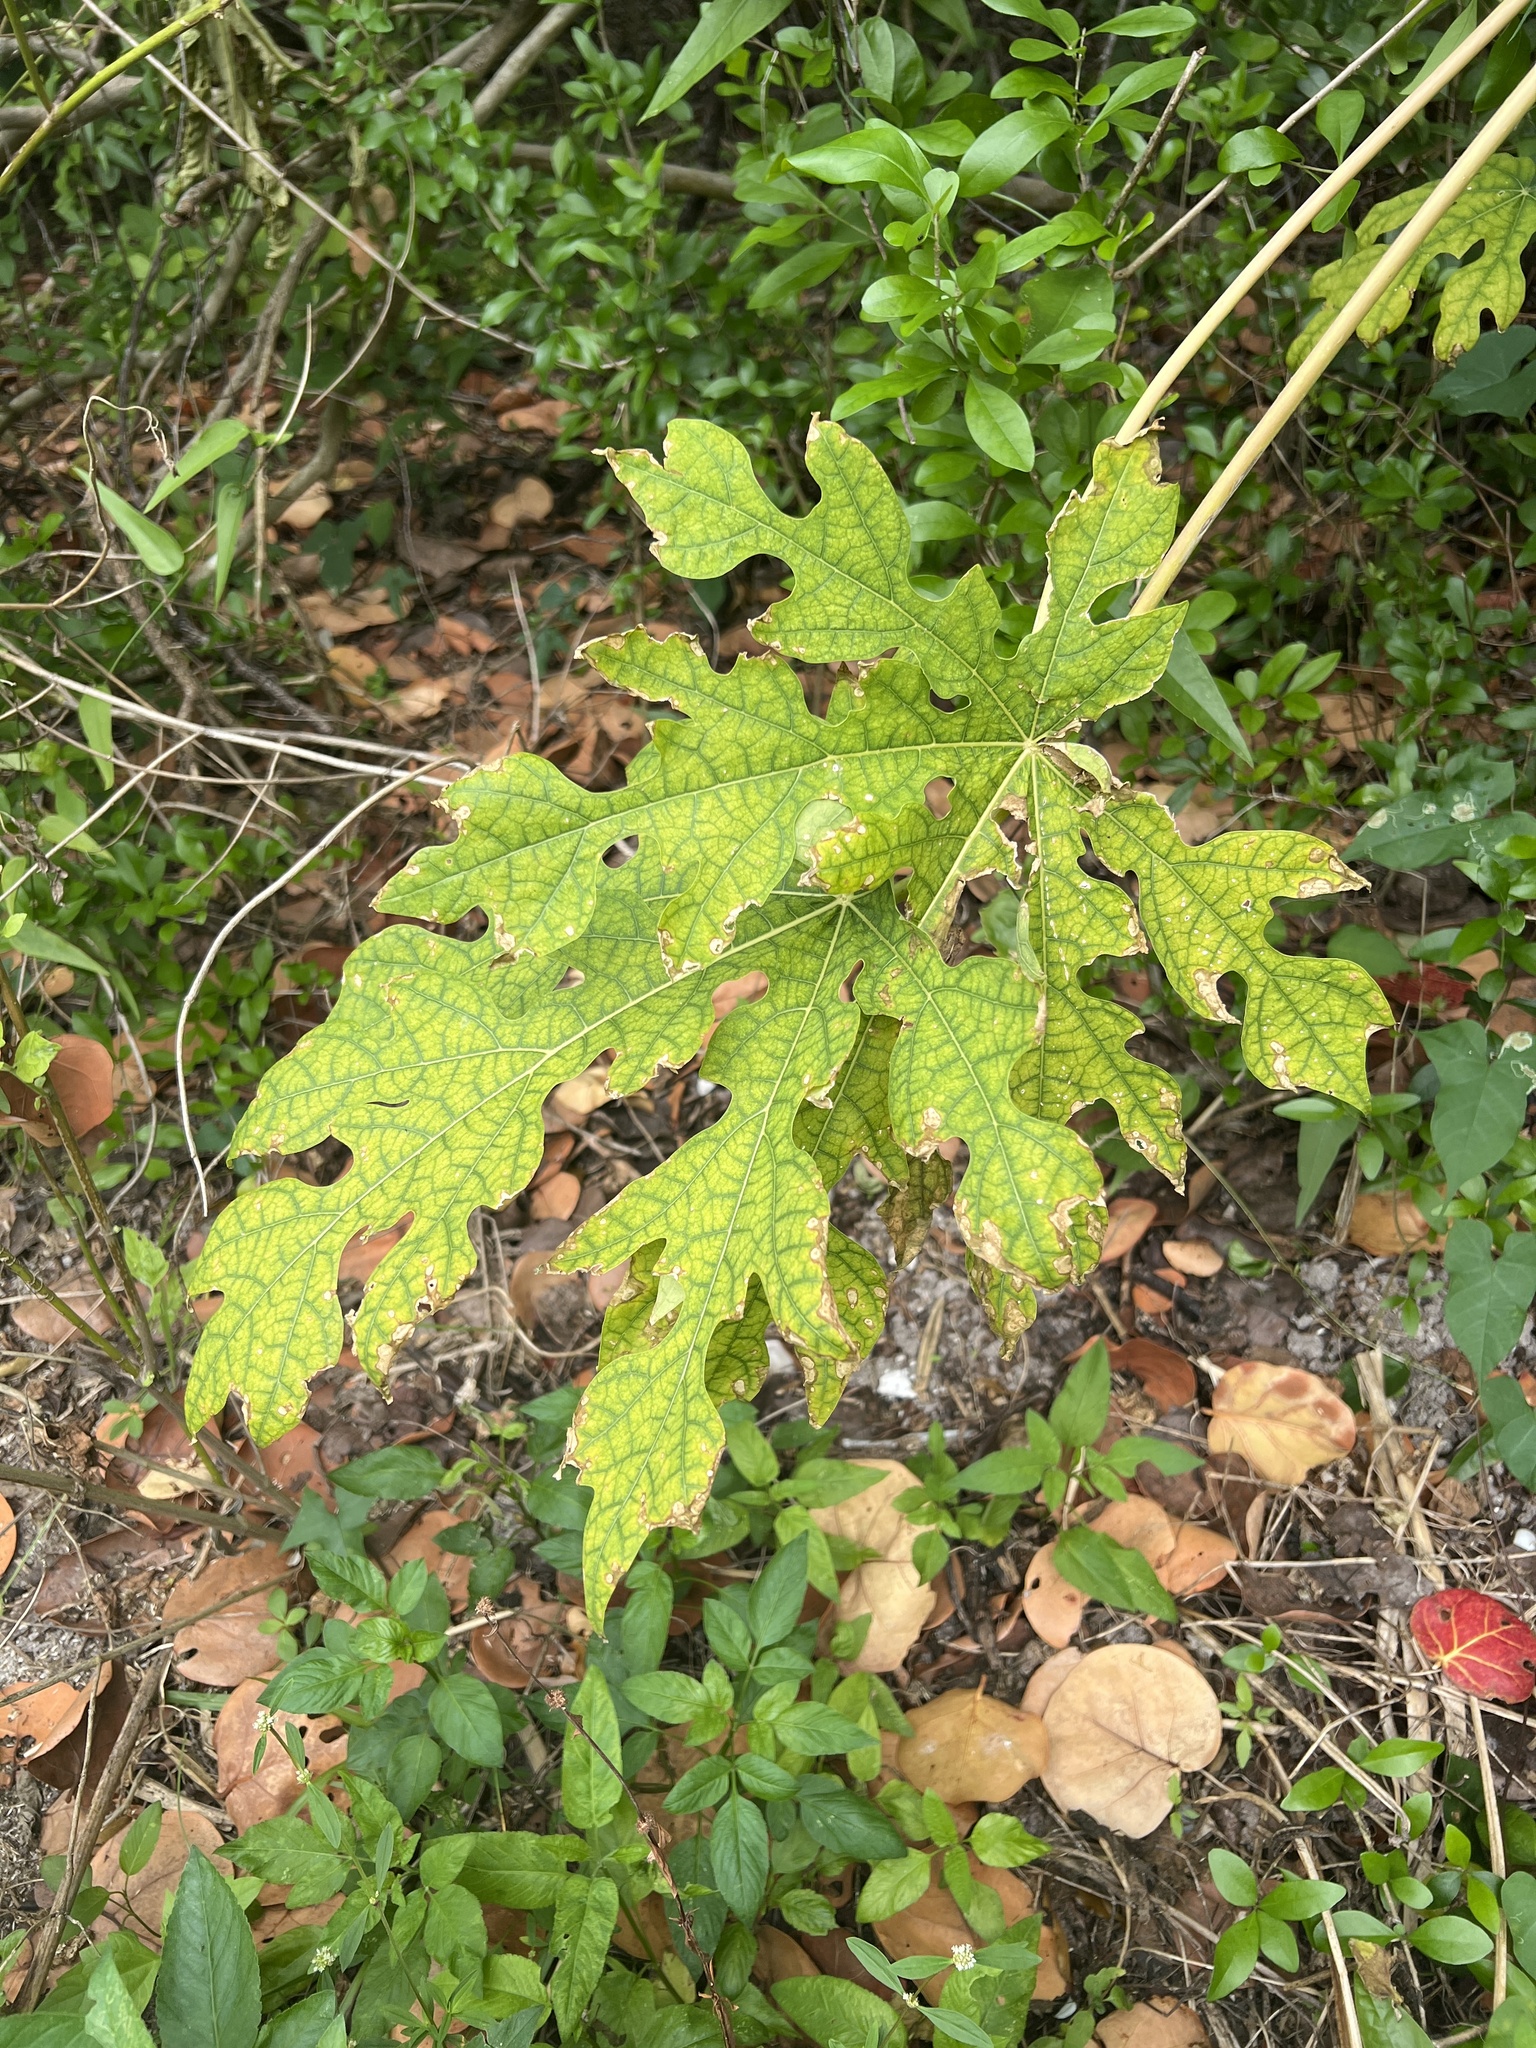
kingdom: Plantae
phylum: Tracheophyta
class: Magnoliopsida
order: Brassicales
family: Caricaceae
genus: Carica
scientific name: Carica papaya
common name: Papaya
